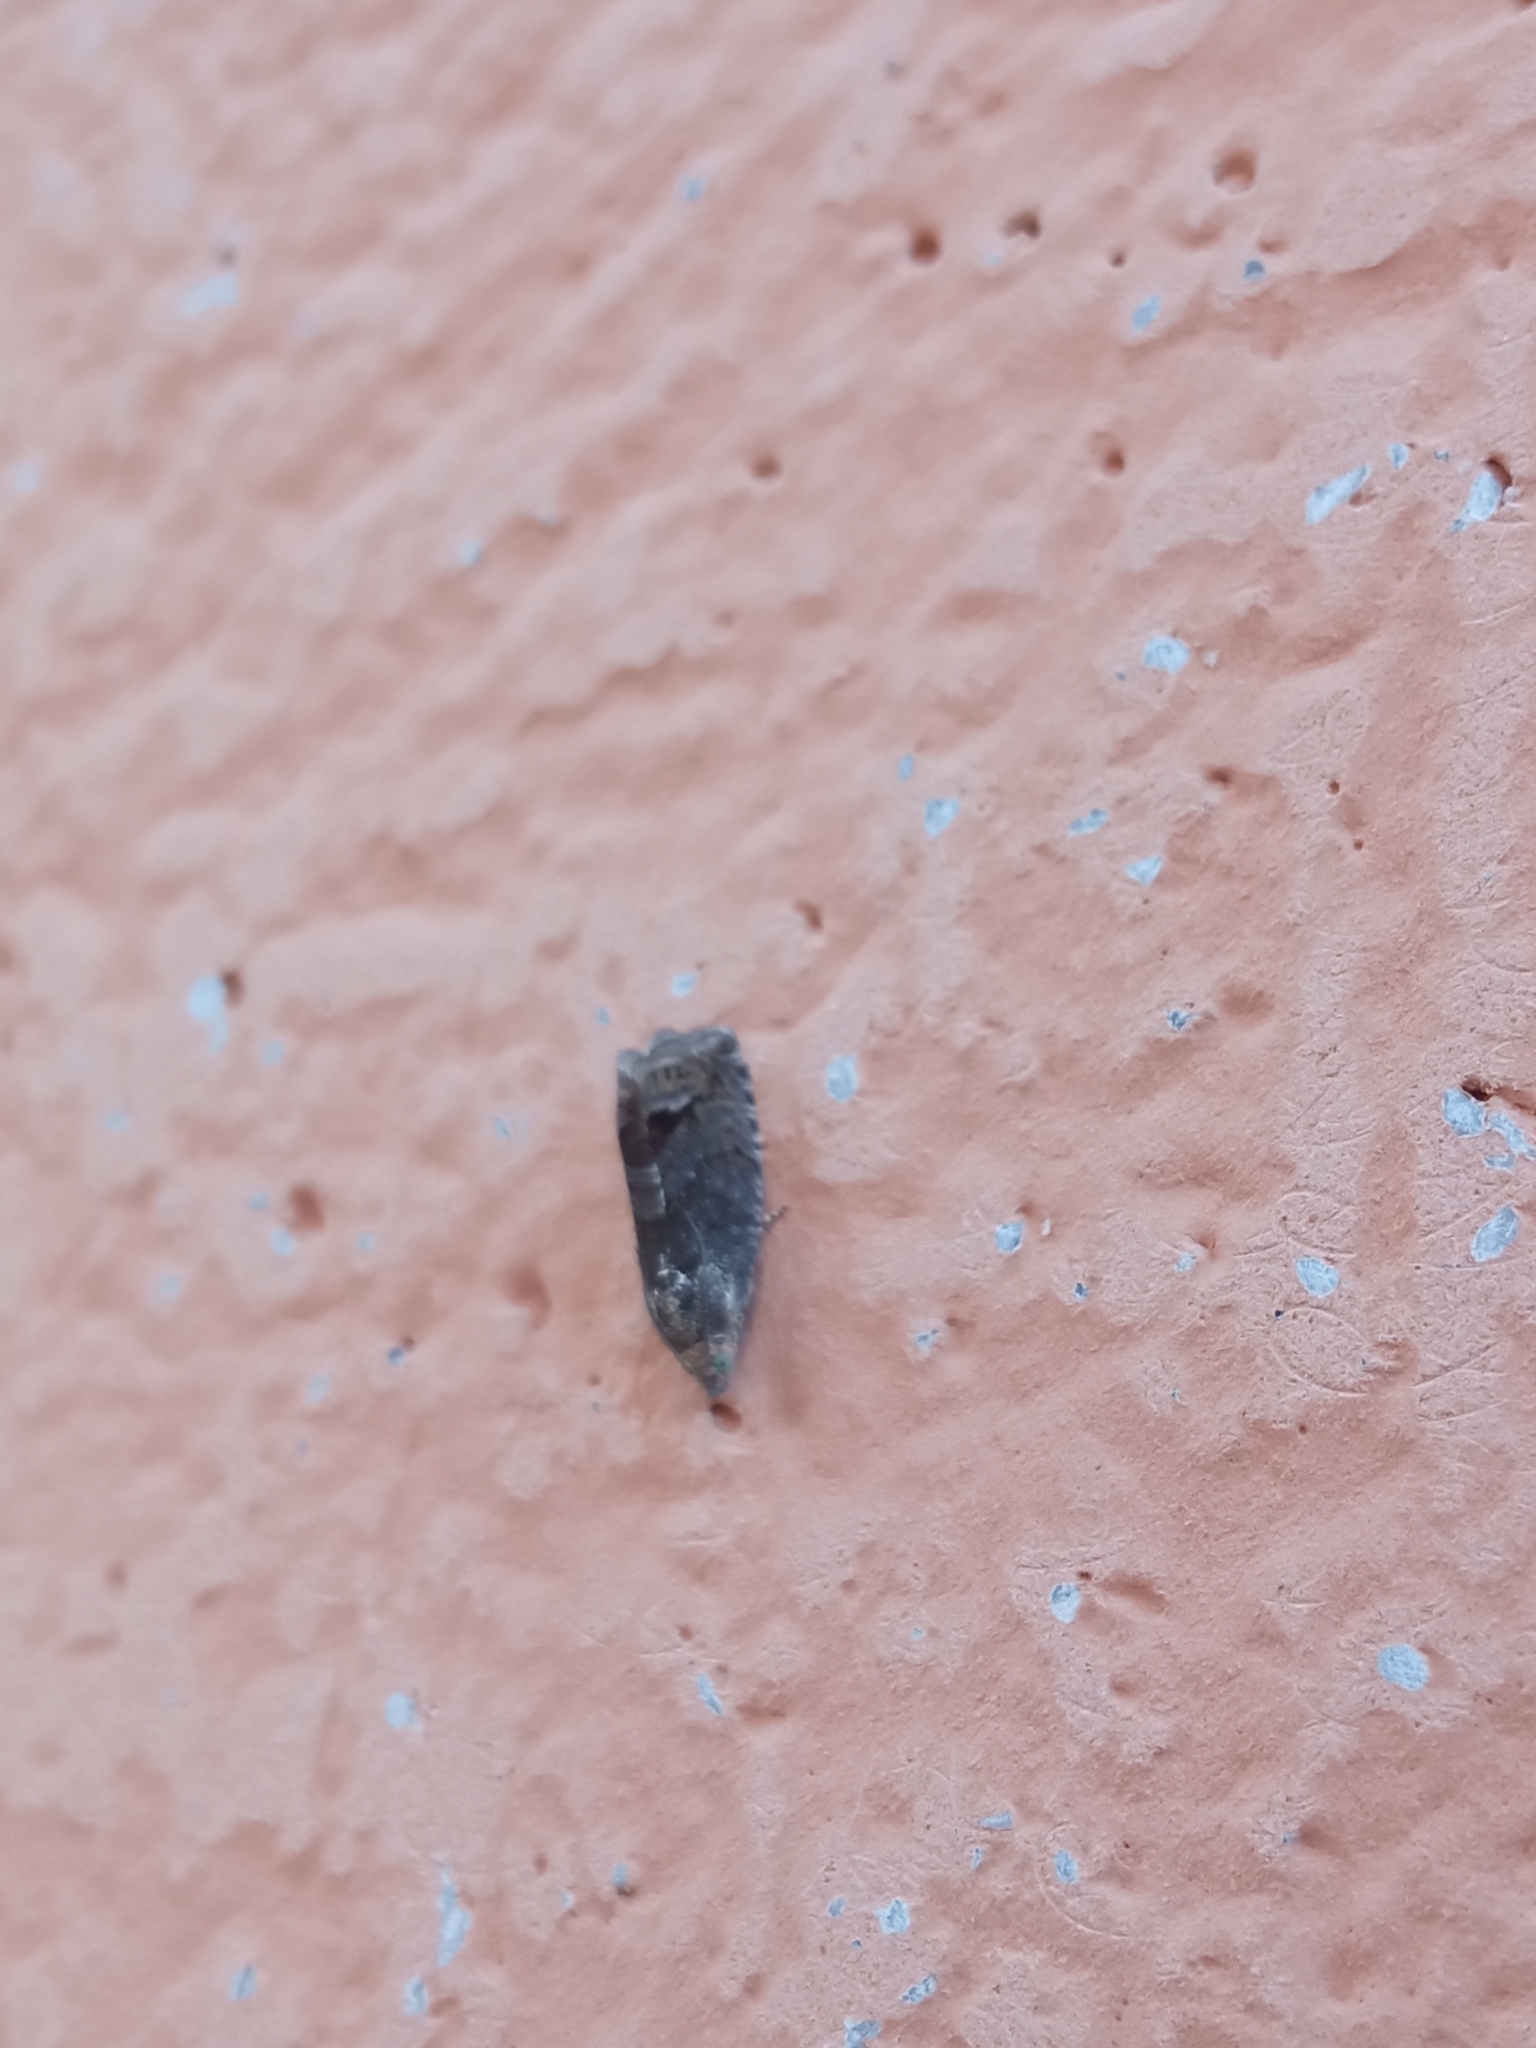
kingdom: Animalia
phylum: Arthropoda
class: Insecta
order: Lepidoptera
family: Tortricidae
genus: Cydia
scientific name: Cydia splendana
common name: De: kastanienwickler, eichenwickler es: oruga de la castaña fr: carpocapse des châtaignes it: cidia o tortrice tardiva delle castagne pt: bichado das castanhas gb: acorn moth, chestnut fruit tortrix
